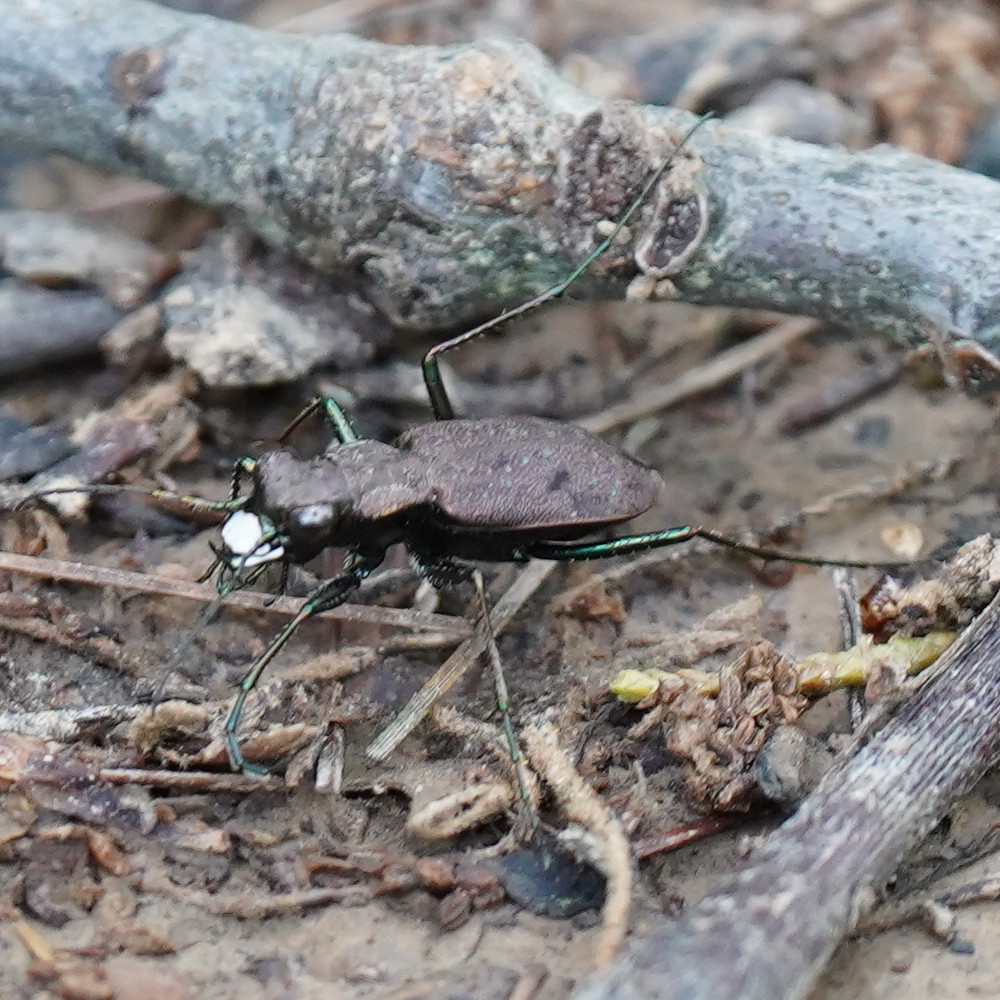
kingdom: Animalia
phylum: Arthropoda
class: Insecta
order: Coleoptera
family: Carabidae
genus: Cylindera
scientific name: Cylindera unipunctata
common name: One-spotted tiger beetle
